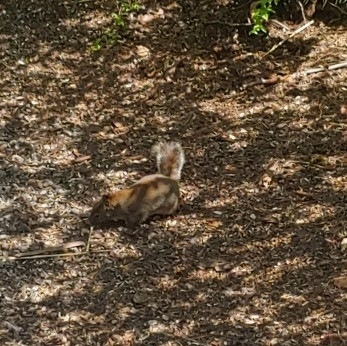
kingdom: Animalia
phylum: Chordata
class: Mammalia
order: Rodentia
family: Sciuridae
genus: Sciurus
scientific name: Sciurus carolinensis
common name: Eastern gray squirrel
